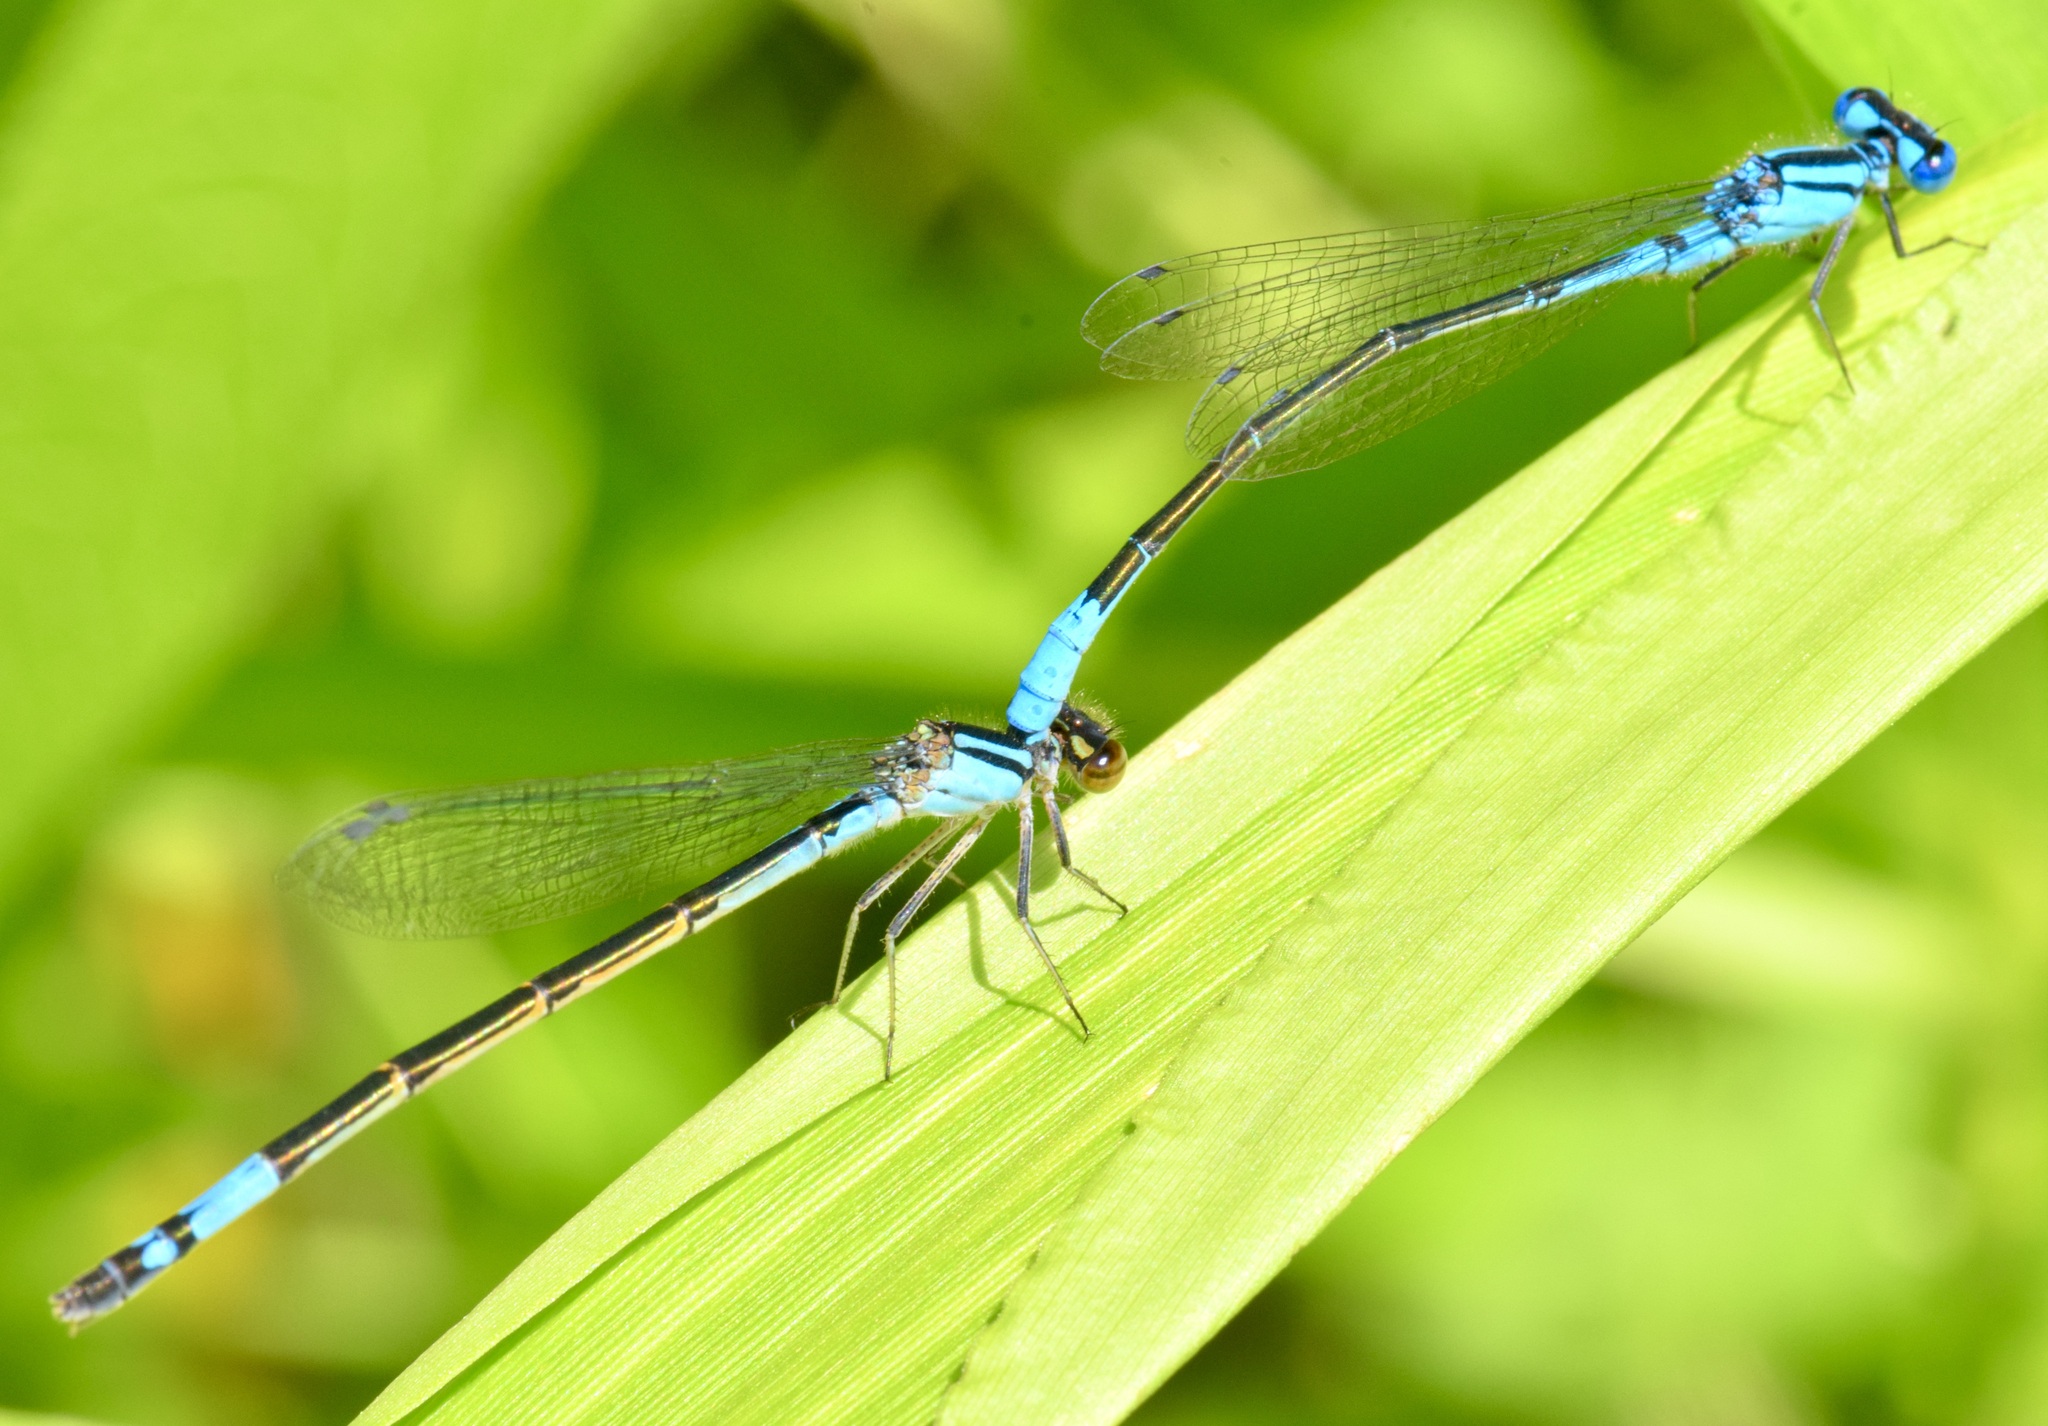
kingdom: Animalia
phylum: Arthropoda
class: Insecta
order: Odonata
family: Coenagrionidae
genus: Enallagma
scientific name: Enallagma aspersum
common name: Azure bluet
